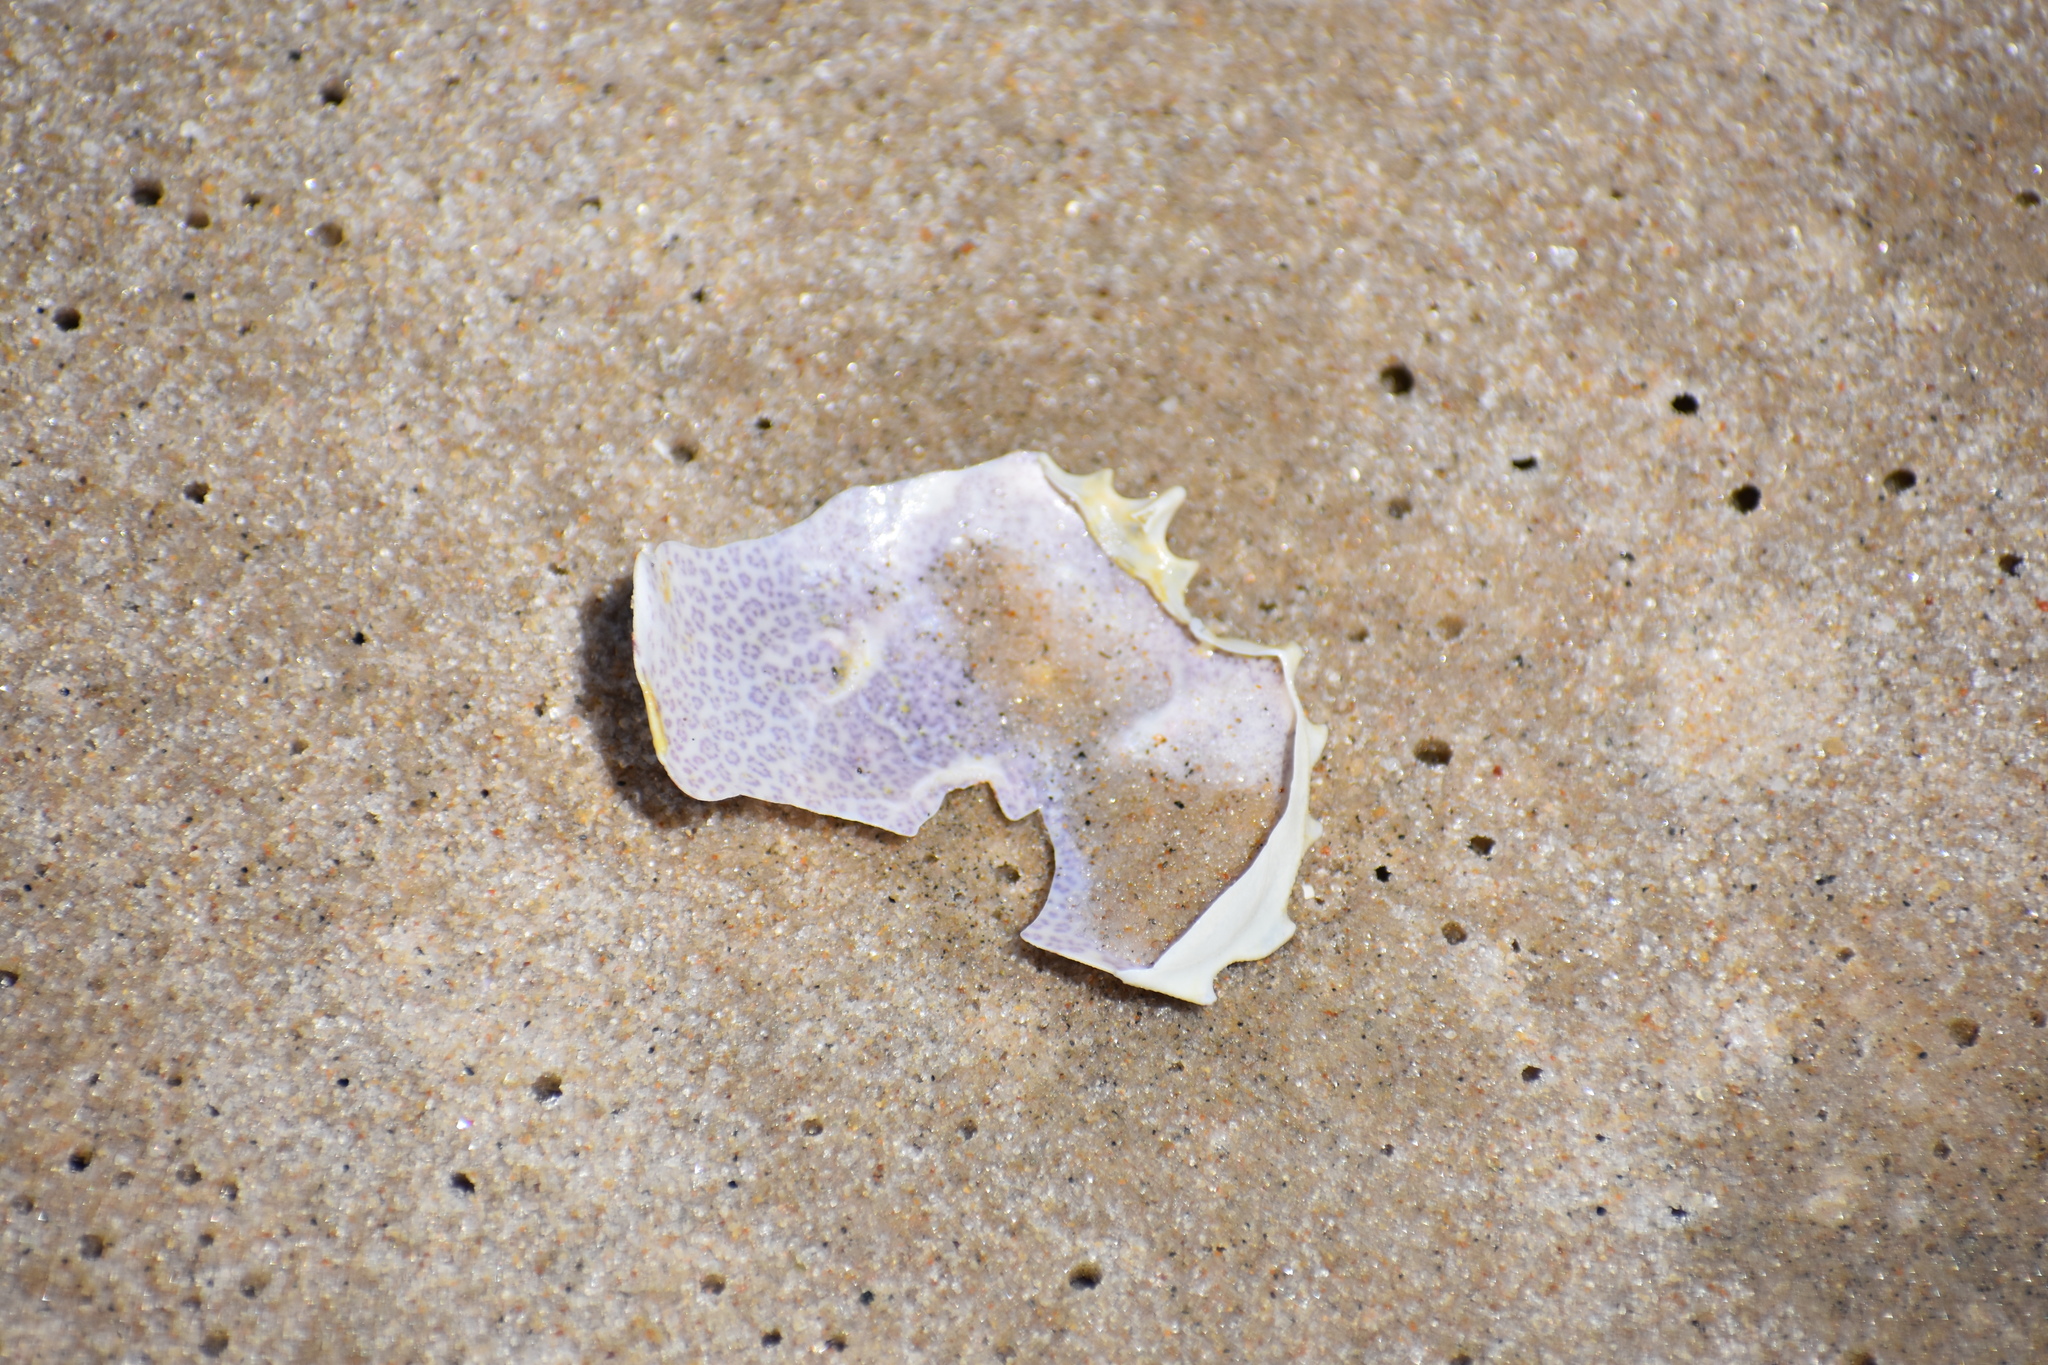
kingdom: Animalia
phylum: Arthropoda
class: Malacostraca
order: Decapoda
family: Ovalipidae
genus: Ovalipes
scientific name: Ovalipes ocellatus
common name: Lady crab
